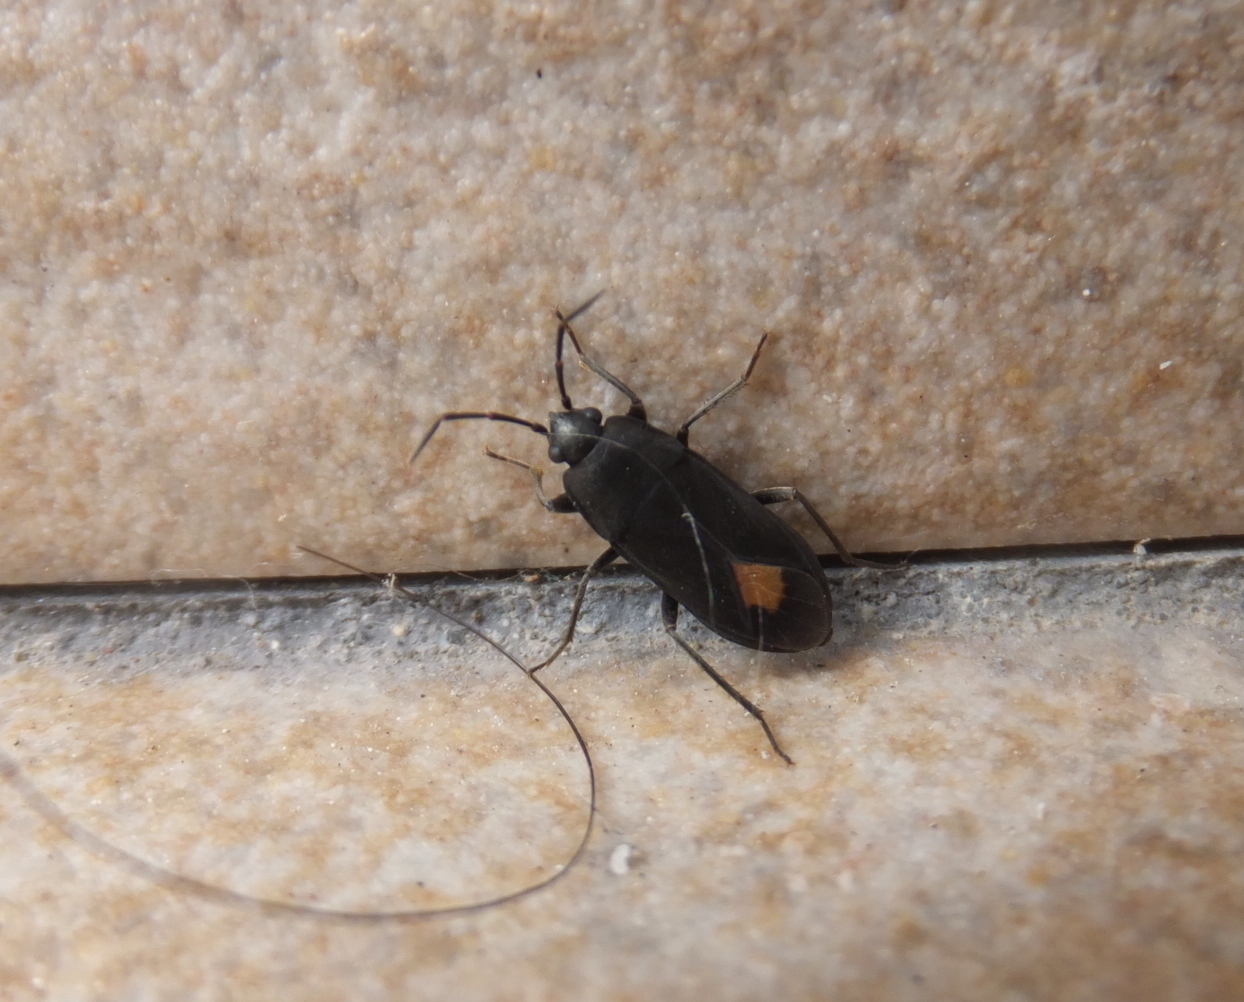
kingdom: Animalia
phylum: Arthropoda
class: Insecta
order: Hemiptera
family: Rhyparochromidae
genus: Aphanus
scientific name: Aphanus rolandri
